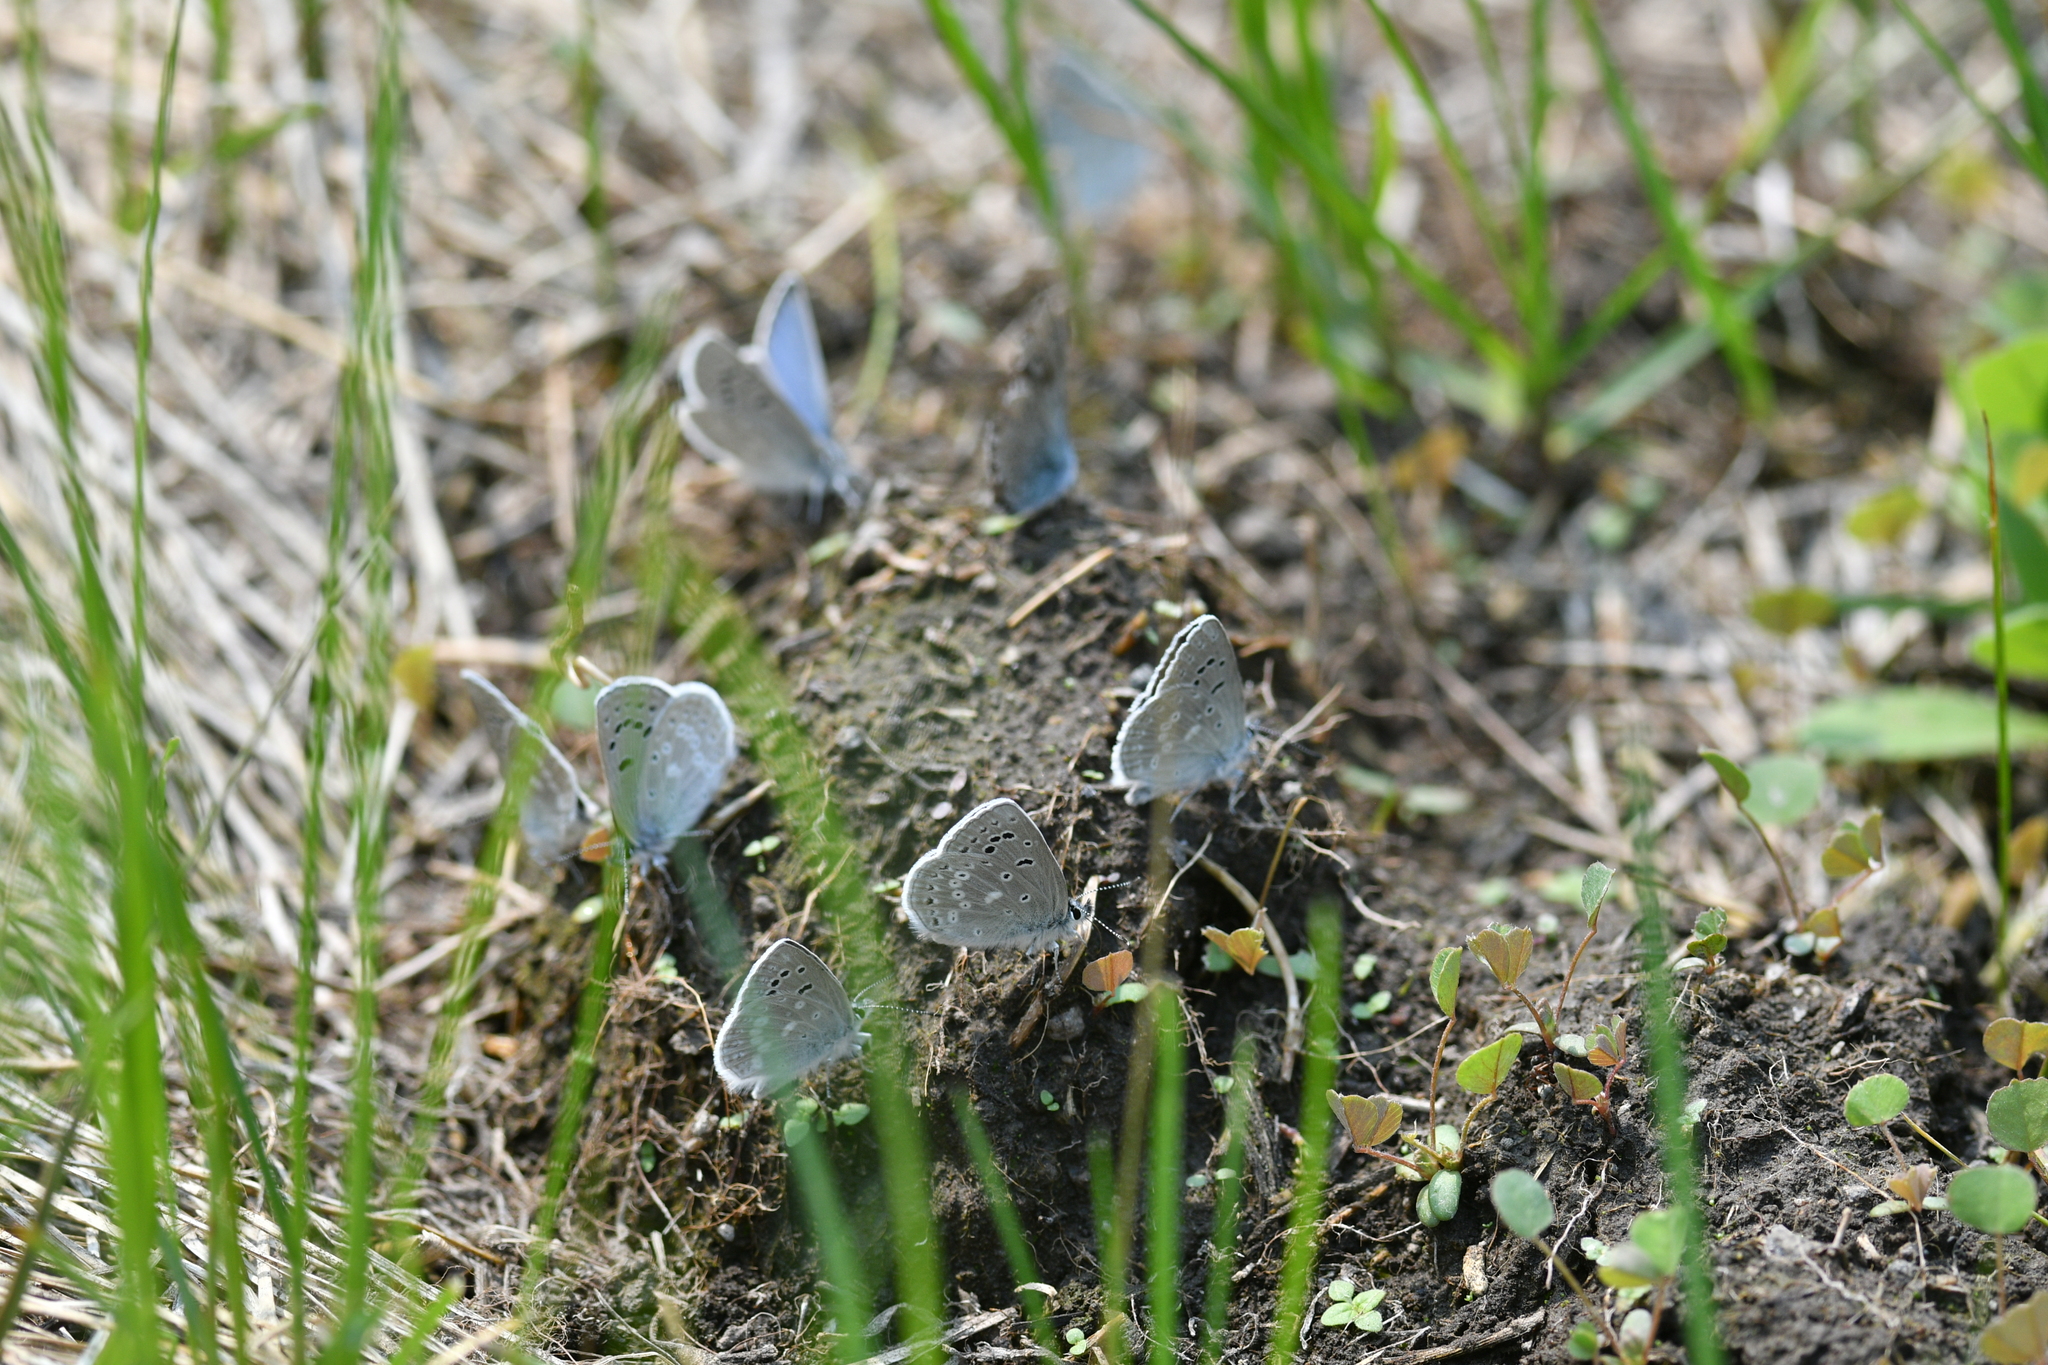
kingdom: Animalia
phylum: Arthropoda
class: Insecta
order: Lepidoptera
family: Lycaenidae
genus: Icaricia
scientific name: Icaricia icarioides
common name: Boisduval's blue
